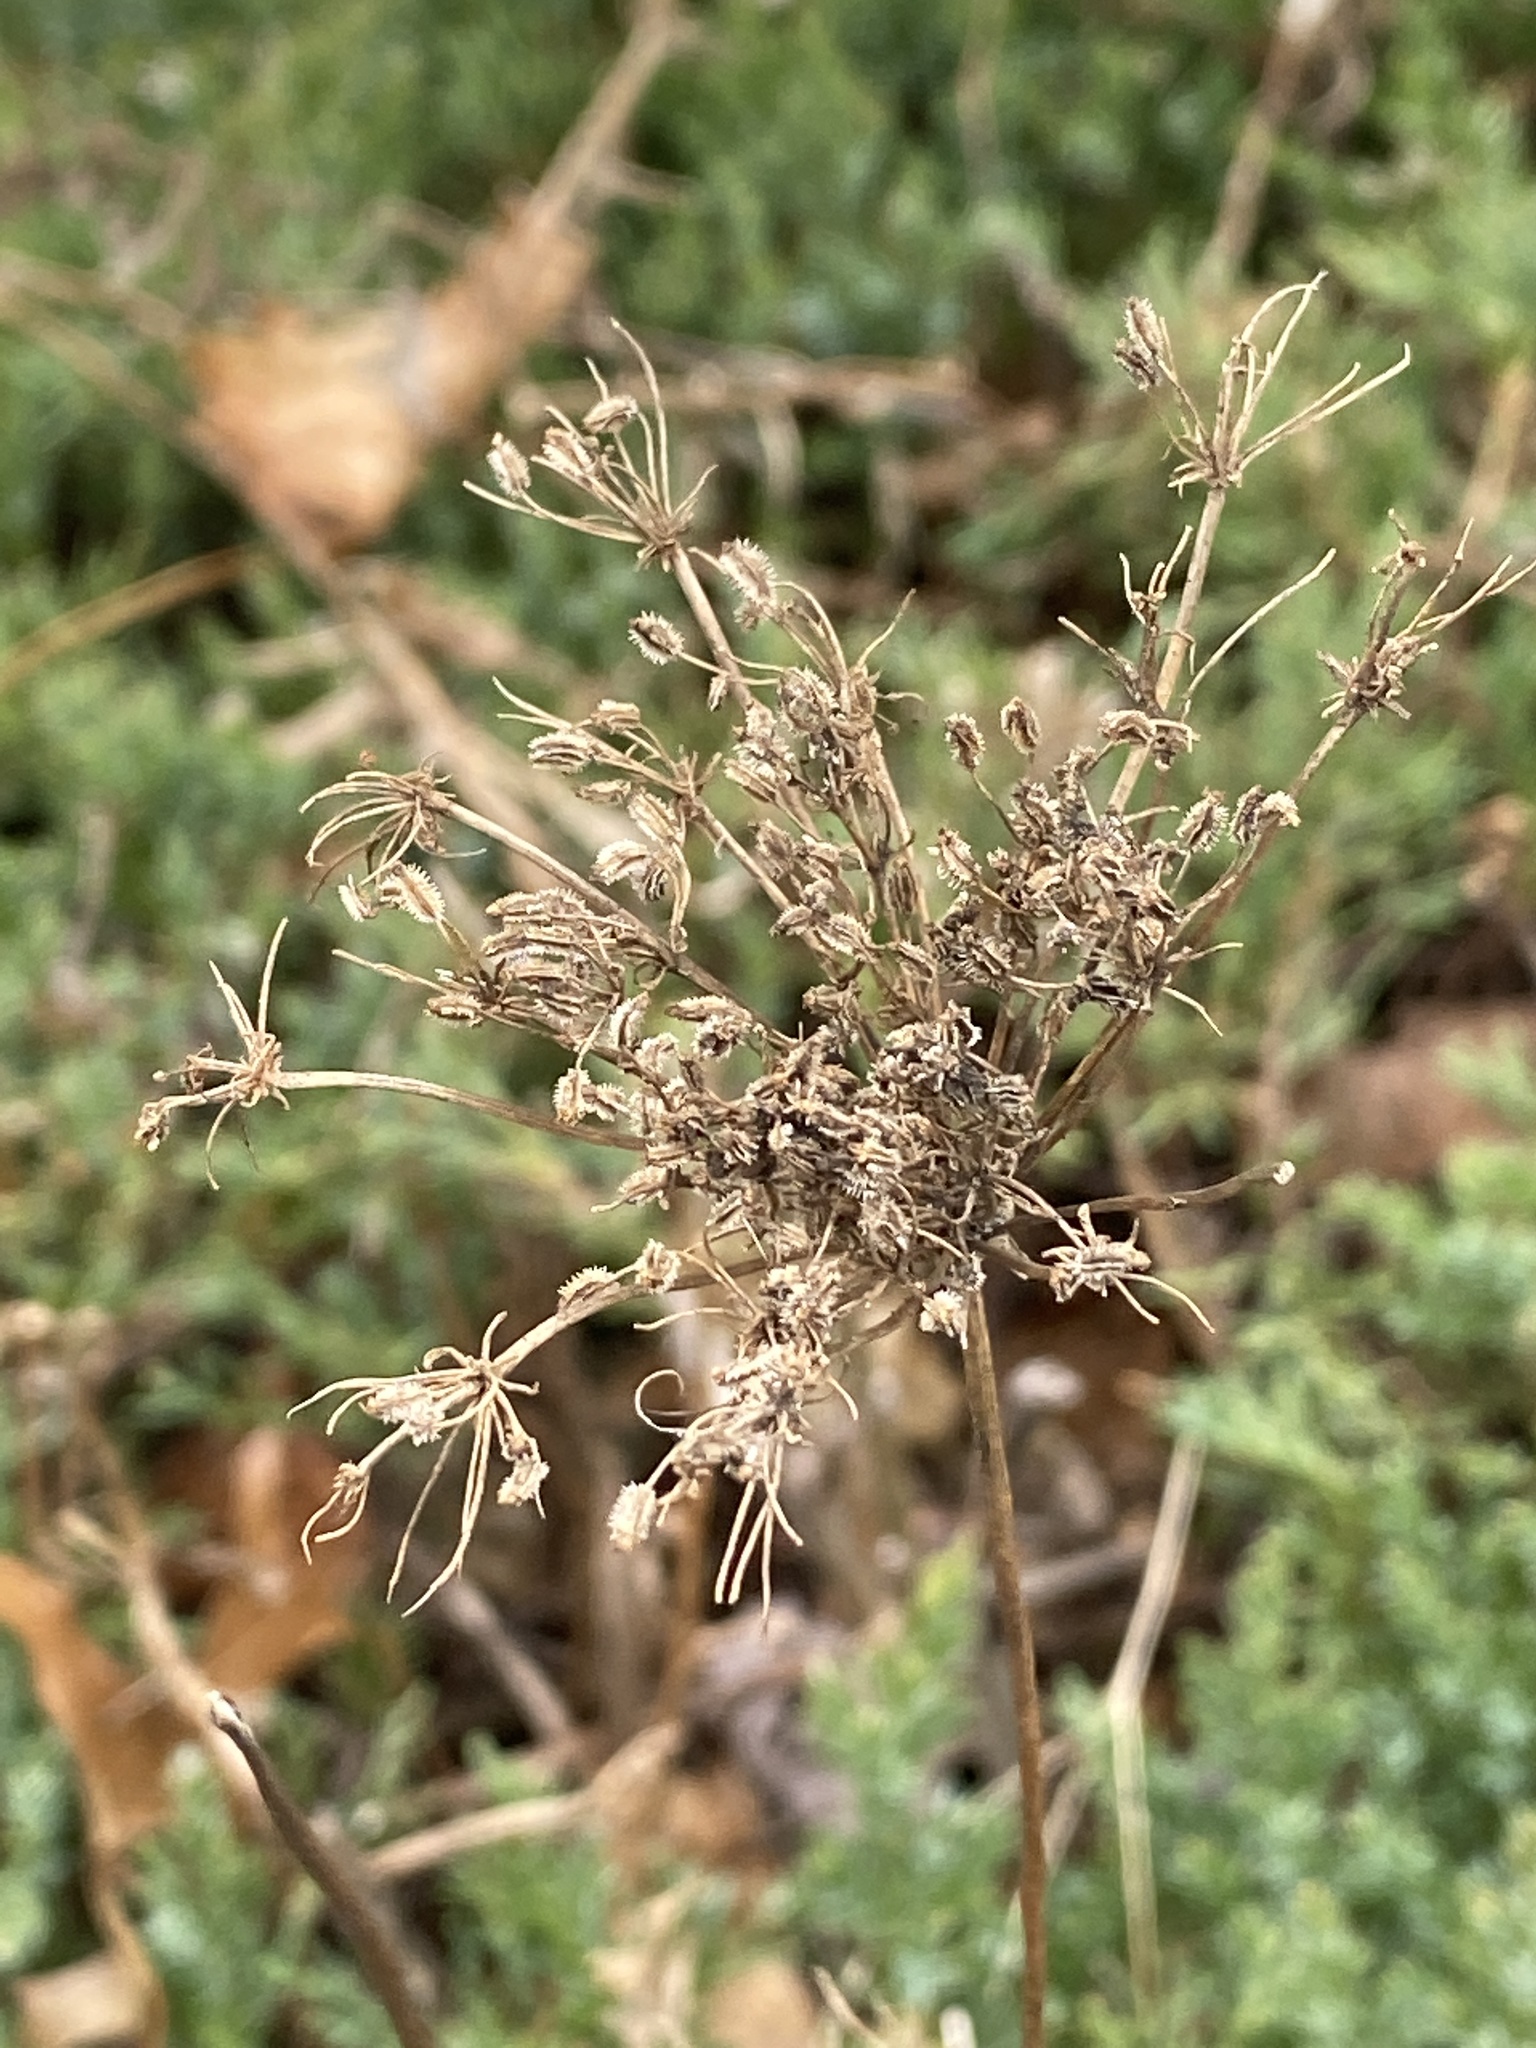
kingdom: Plantae
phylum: Tracheophyta
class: Magnoliopsida
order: Apiales
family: Apiaceae
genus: Daucus
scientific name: Daucus carota
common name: Wild carrot
